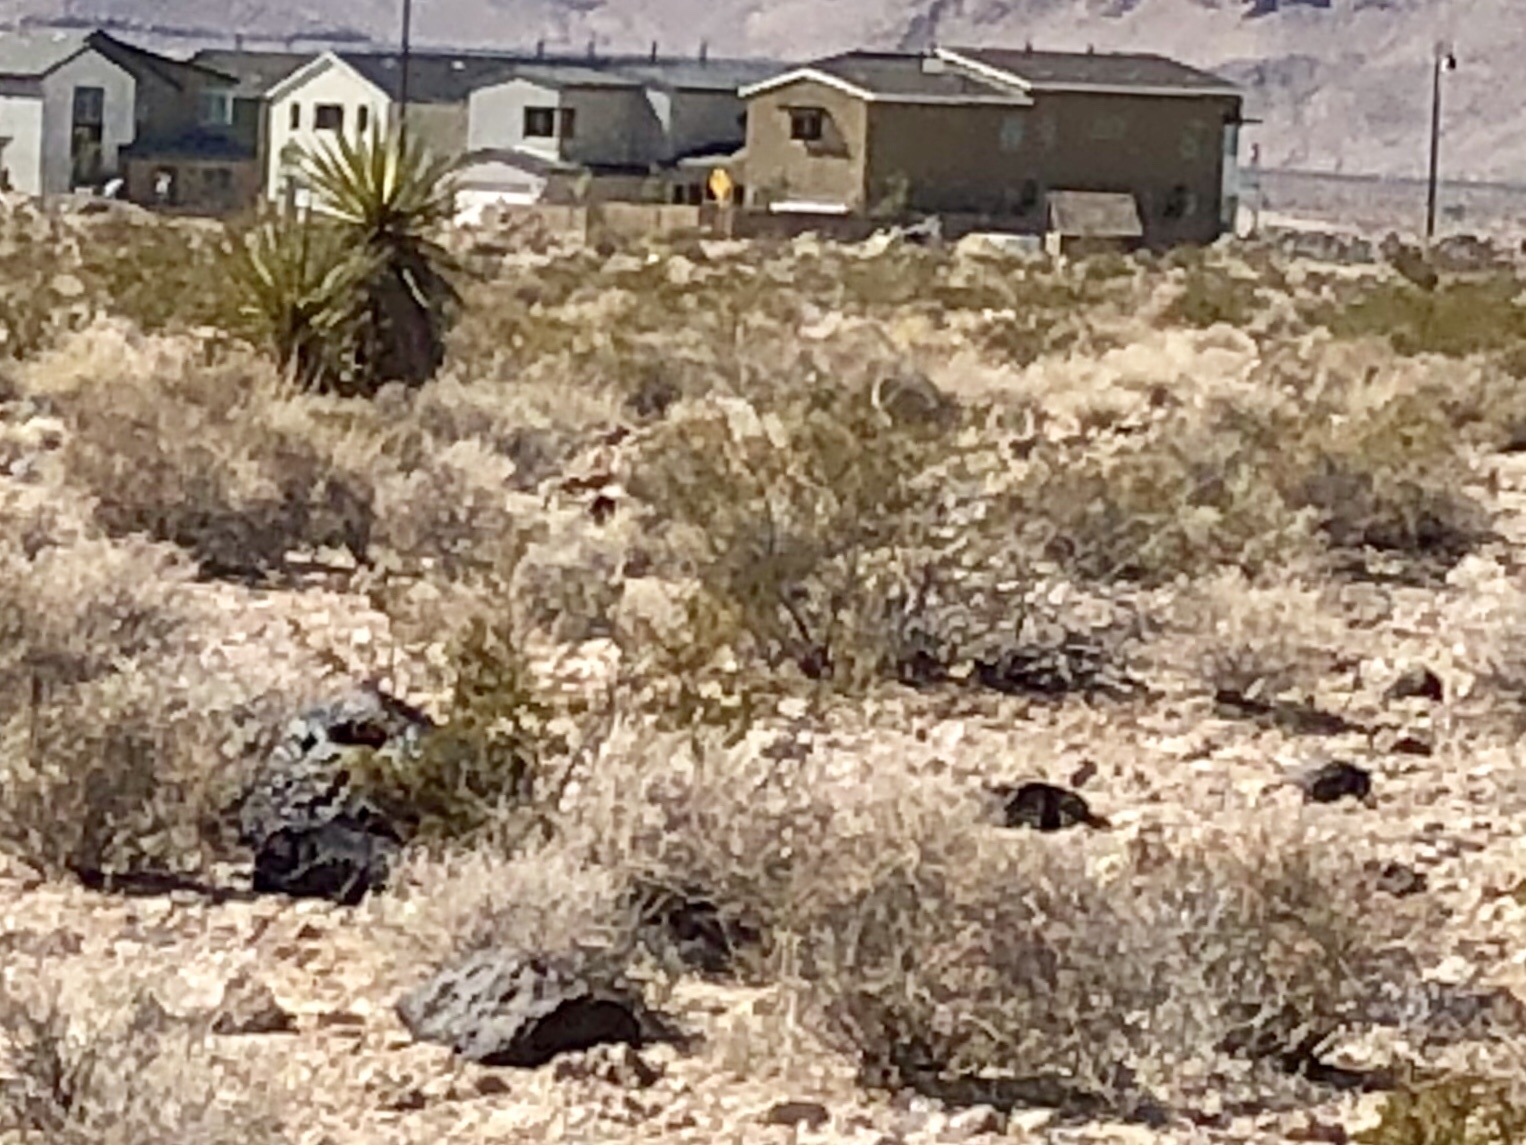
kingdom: Plantae
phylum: Tracheophyta
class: Magnoliopsida
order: Zygophyllales
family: Zygophyllaceae
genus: Larrea
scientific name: Larrea tridentata
